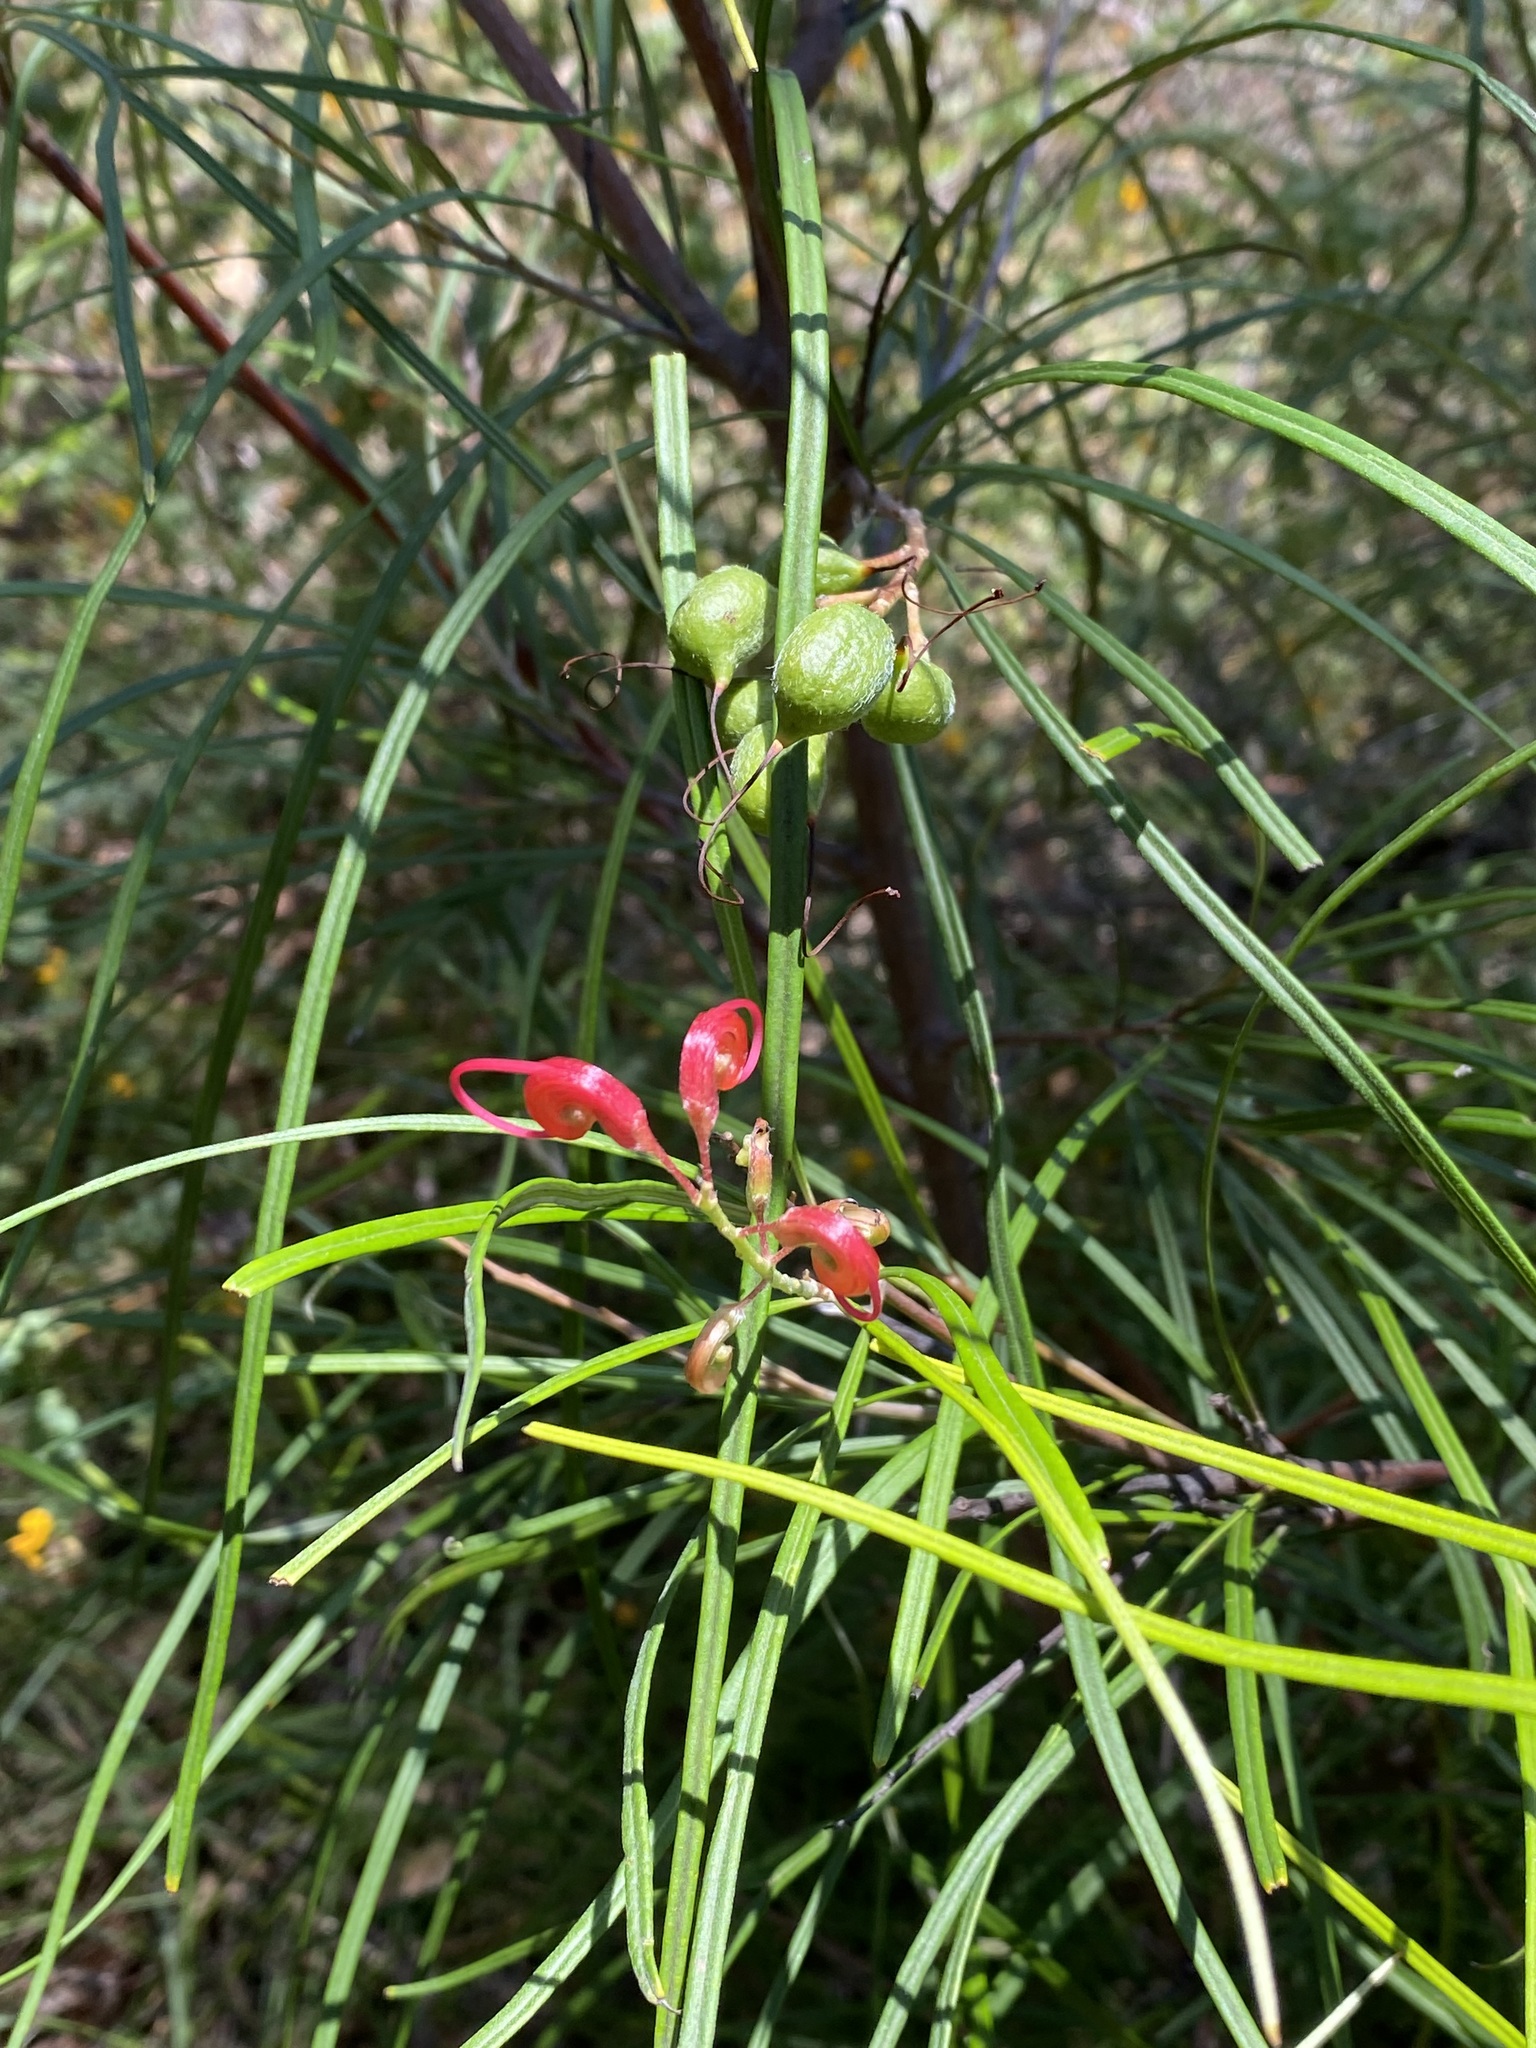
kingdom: Plantae
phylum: Tracheophyta
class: Magnoliopsida
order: Proteales
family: Proteaceae
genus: Grevillea
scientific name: Grevillea longistyla
